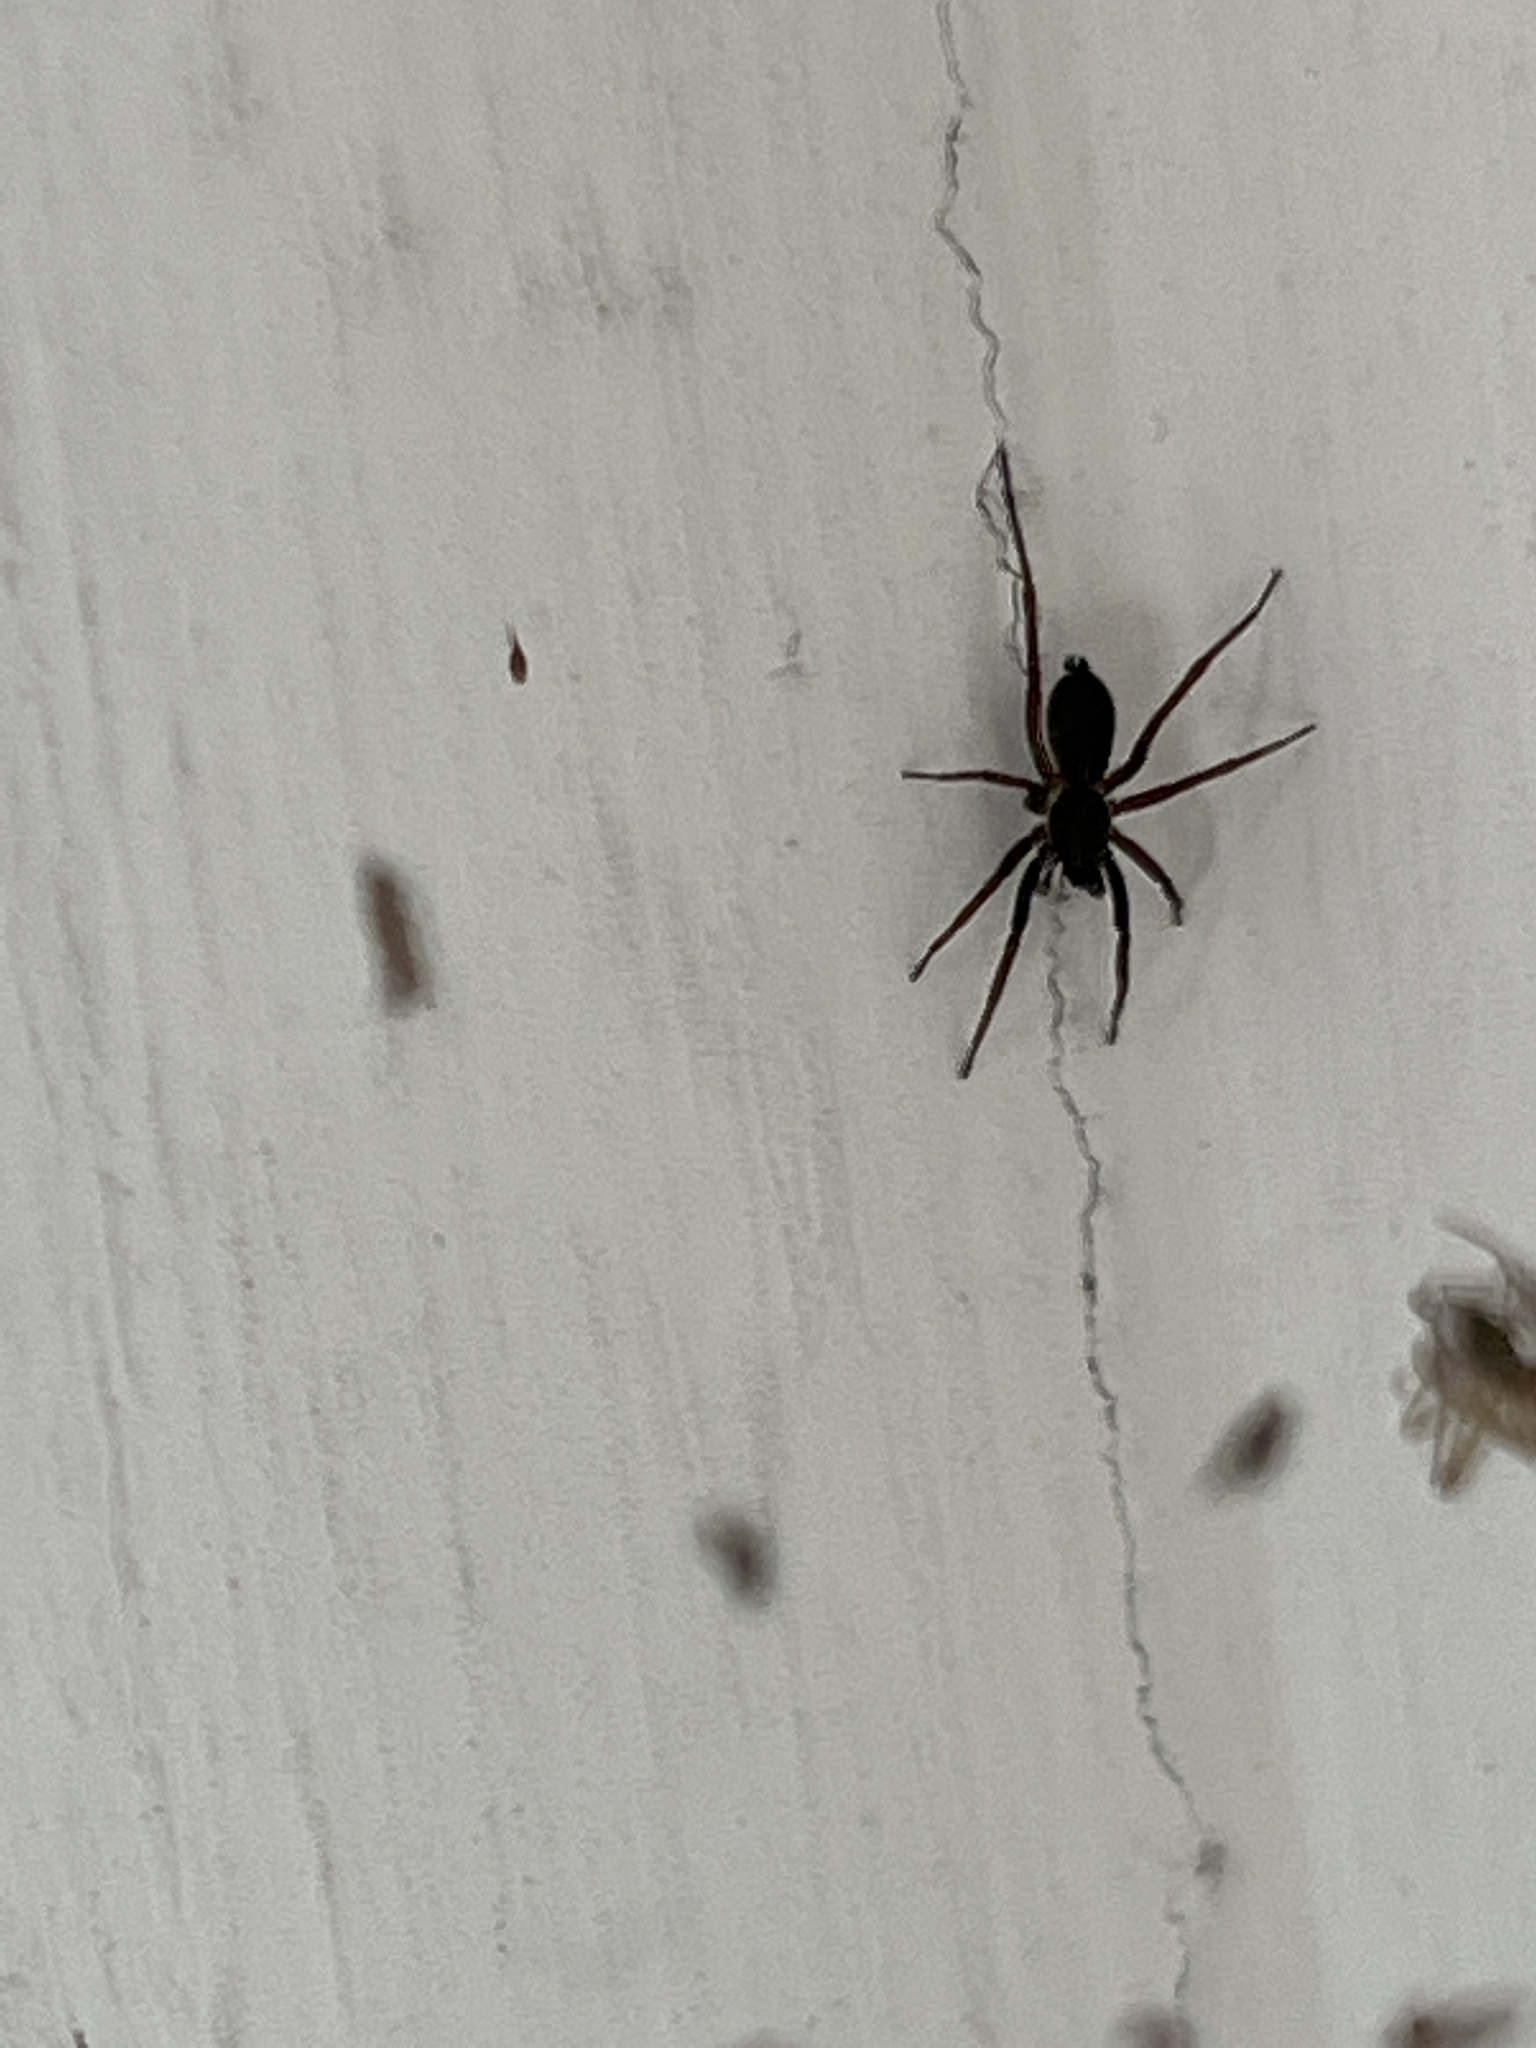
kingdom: Animalia
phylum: Arthropoda
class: Arachnida
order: Araneae
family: Lycosidae
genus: Aulonia
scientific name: Aulonia albimana
